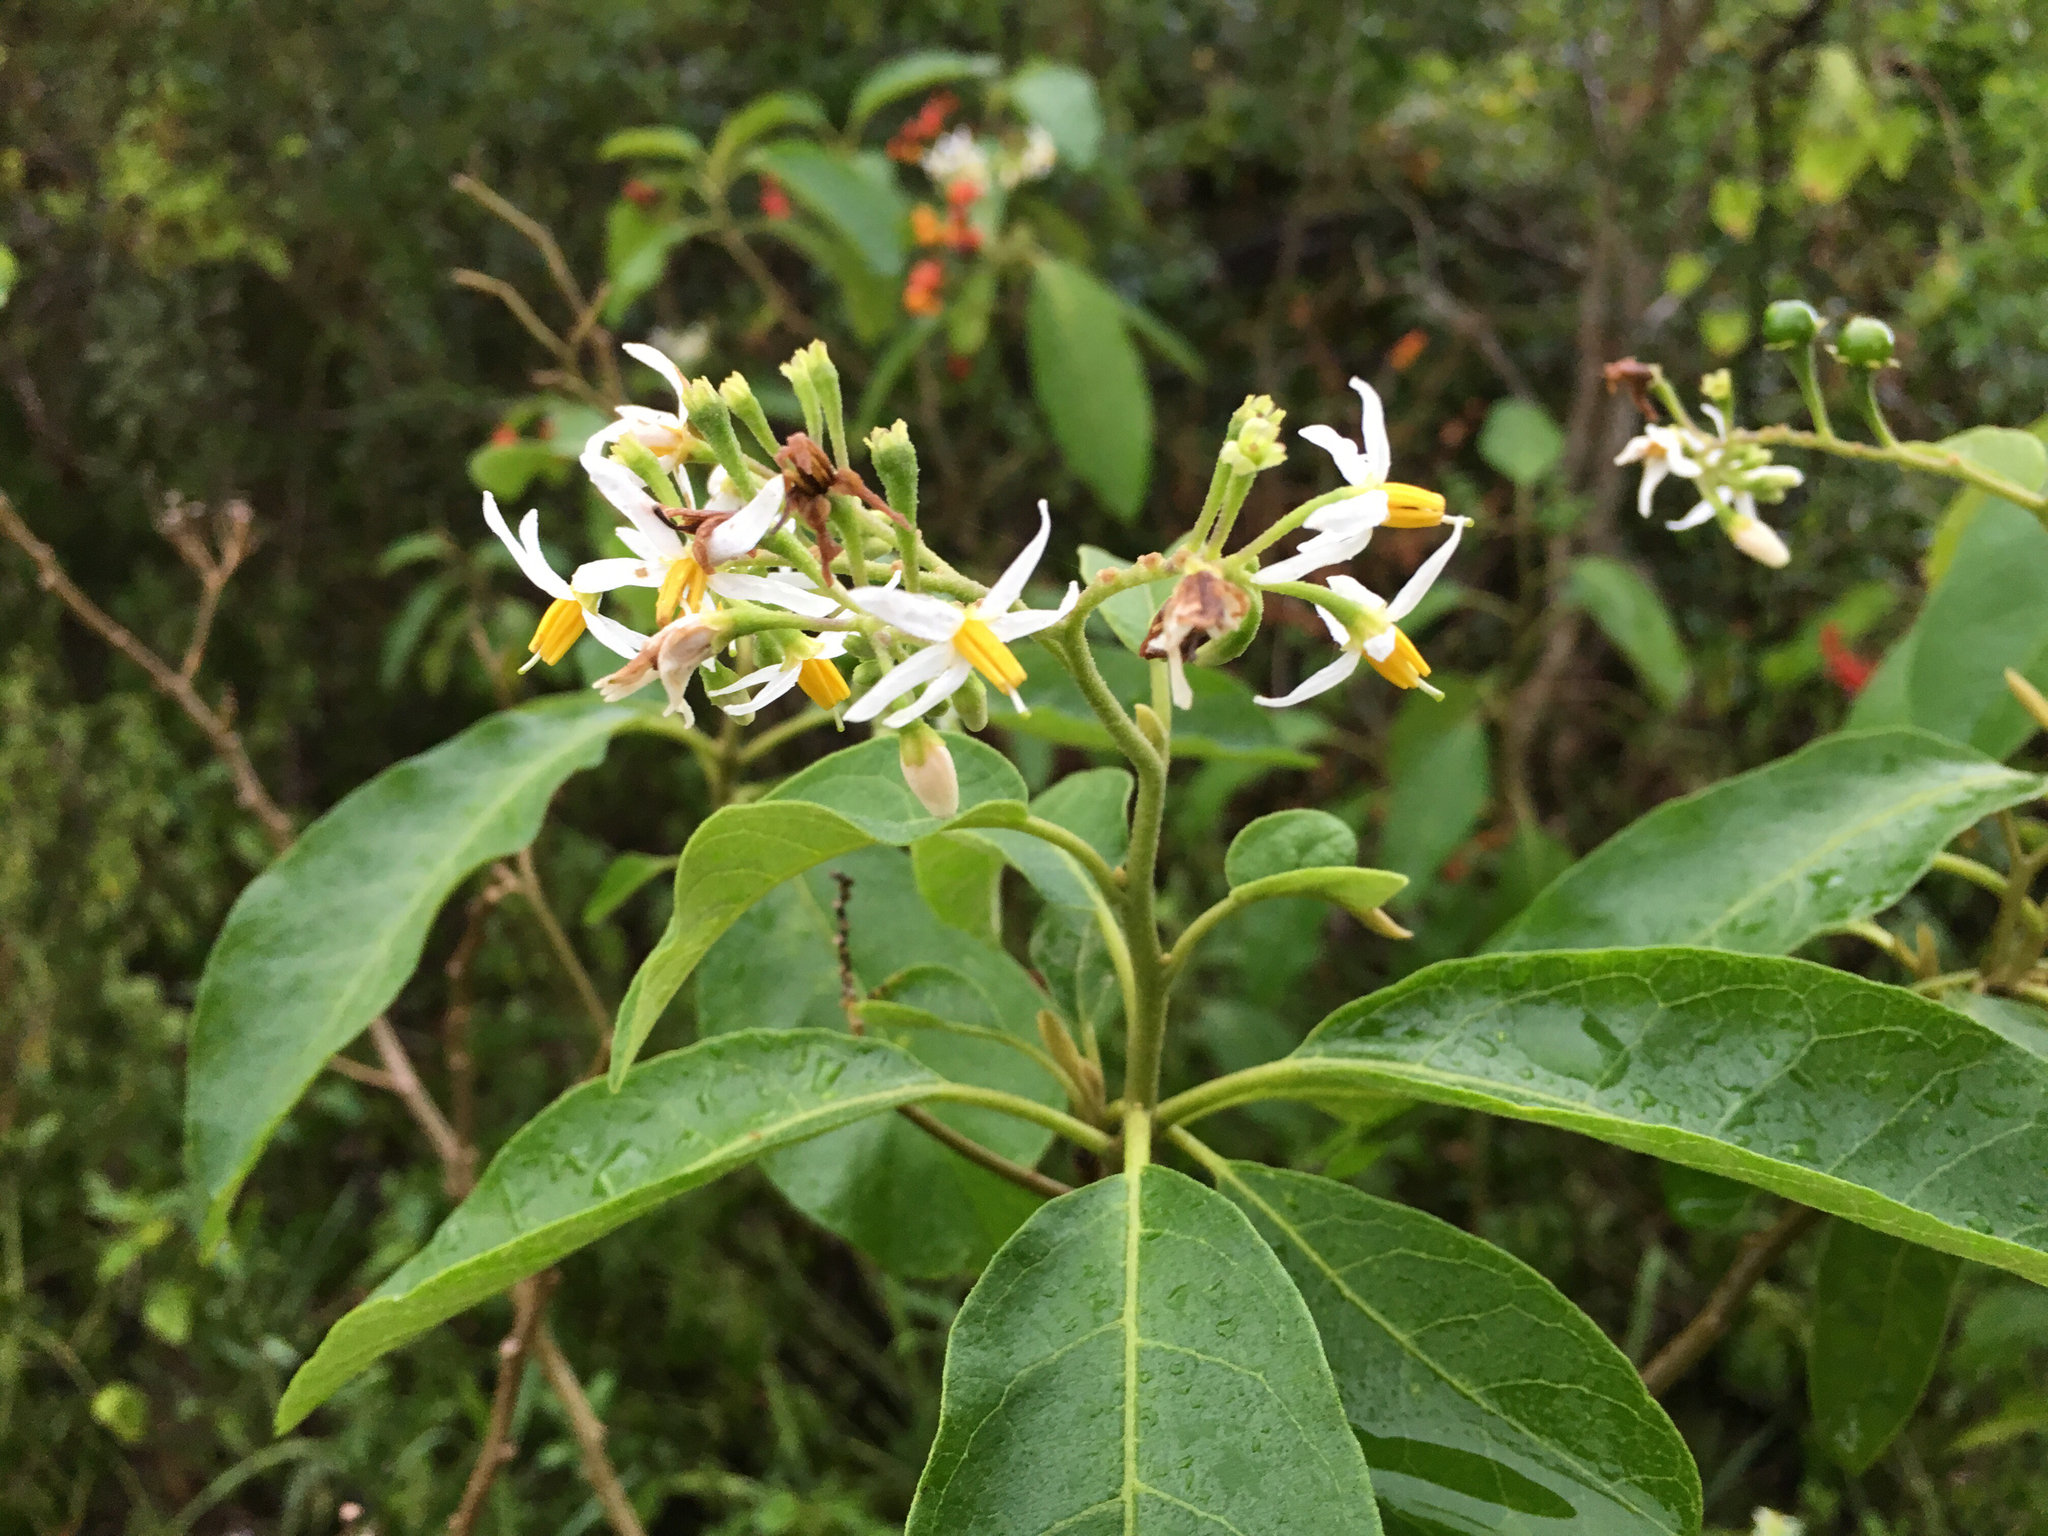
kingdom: Plantae
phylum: Tracheophyta
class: Magnoliopsida
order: Solanales
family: Solanaceae
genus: Solanum
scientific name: Solanum donianum
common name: Mullein nightshade
